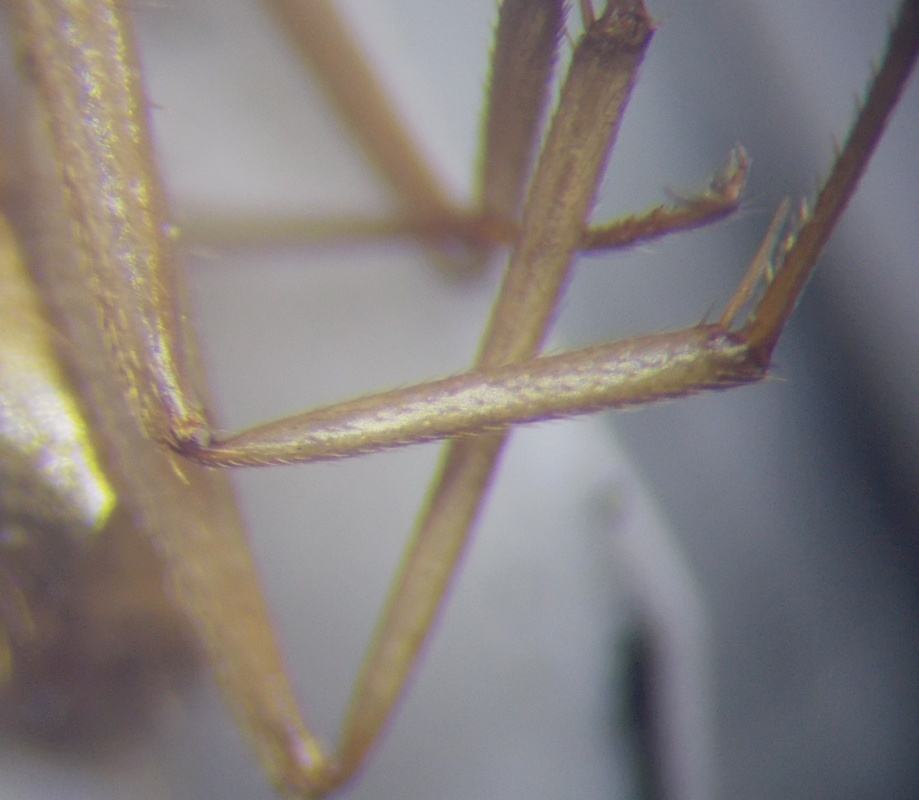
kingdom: Animalia
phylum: Arthropoda
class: Insecta
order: Hymenoptera
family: Formicidae
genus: Camponotus
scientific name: Camponotus fedtschenkoi
